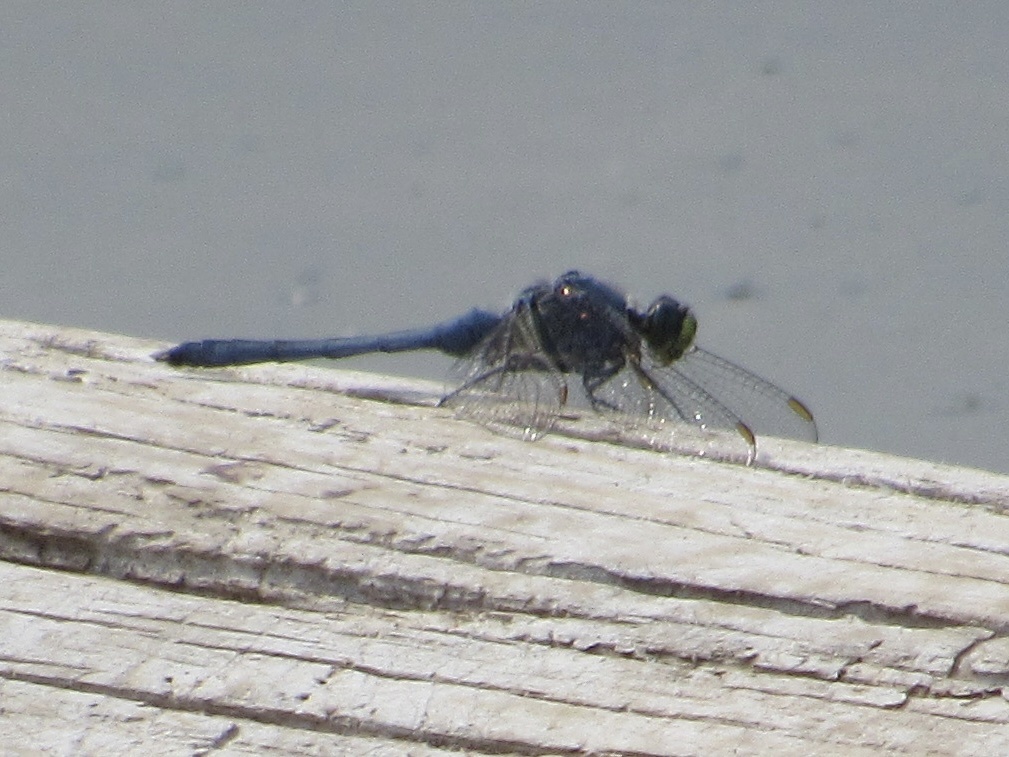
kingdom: Animalia
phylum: Arthropoda
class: Insecta
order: Odonata
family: Libellulidae
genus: Erythemis
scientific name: Erythemis simplicicollis
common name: Eastern pondhawk
